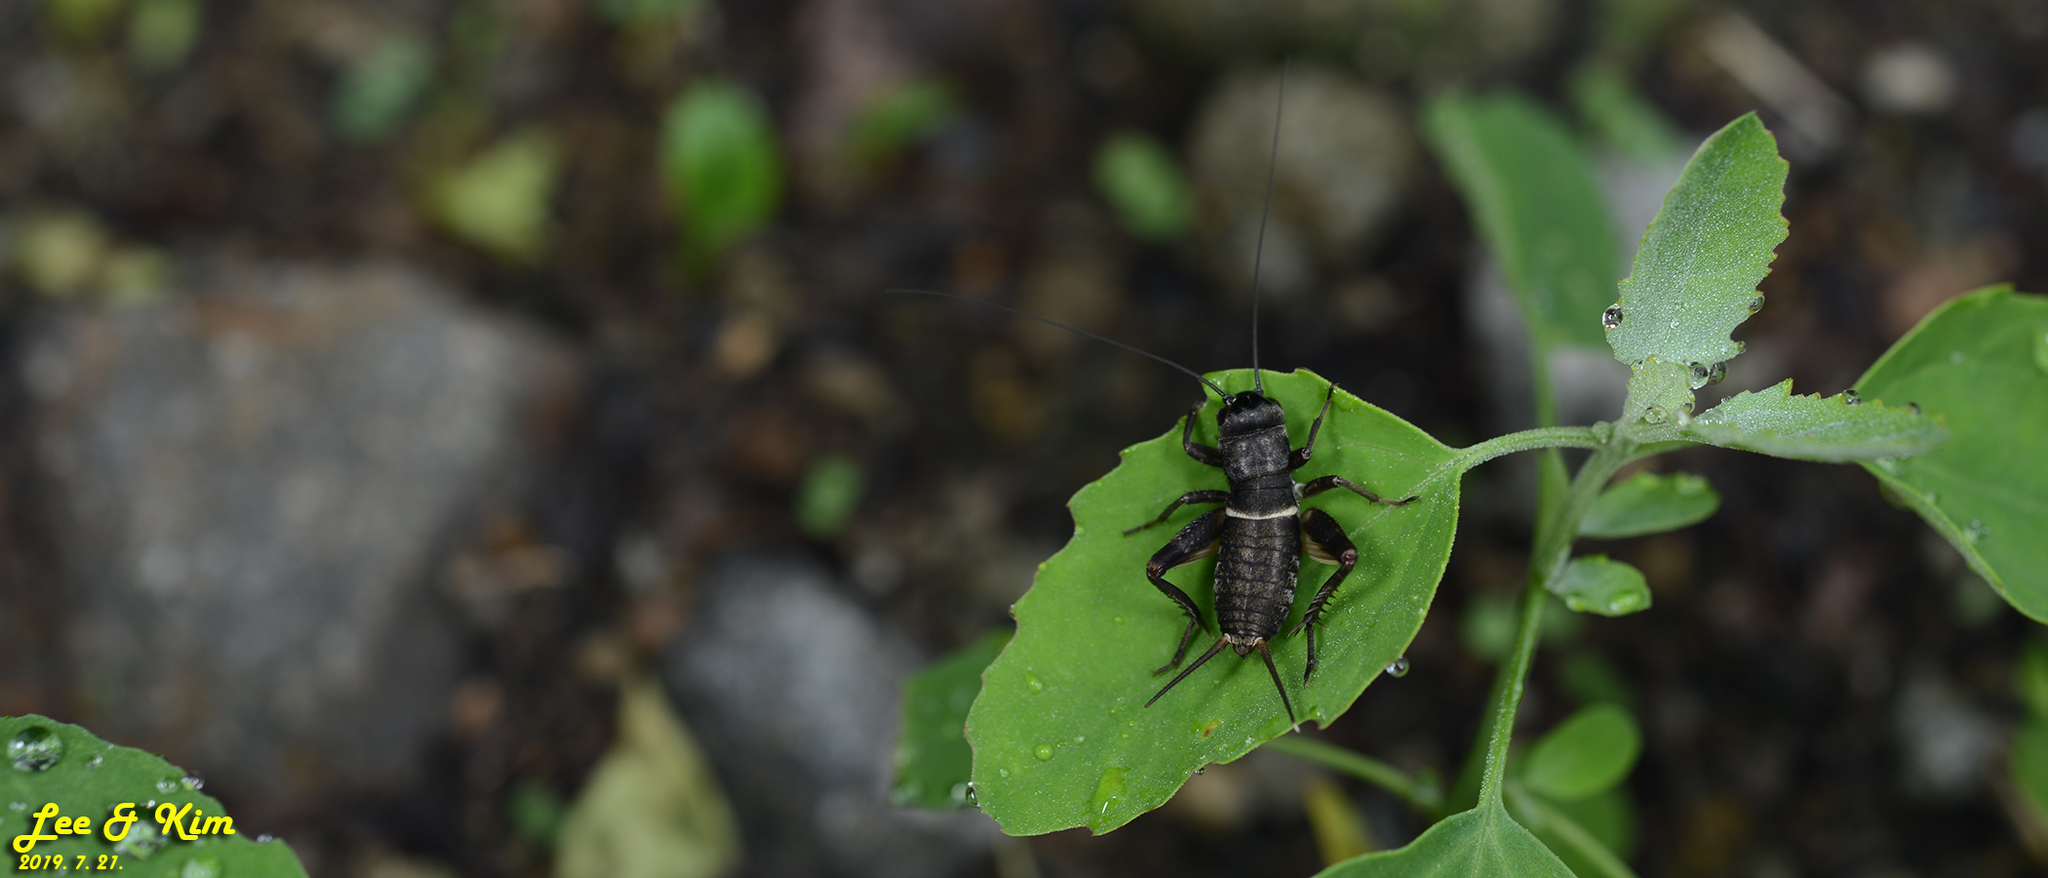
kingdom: Animalia
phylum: Arthropoda
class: Insecta
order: Orthoptera
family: Gryllidae
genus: Teleogryllus
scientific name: Teleogryllus emma
